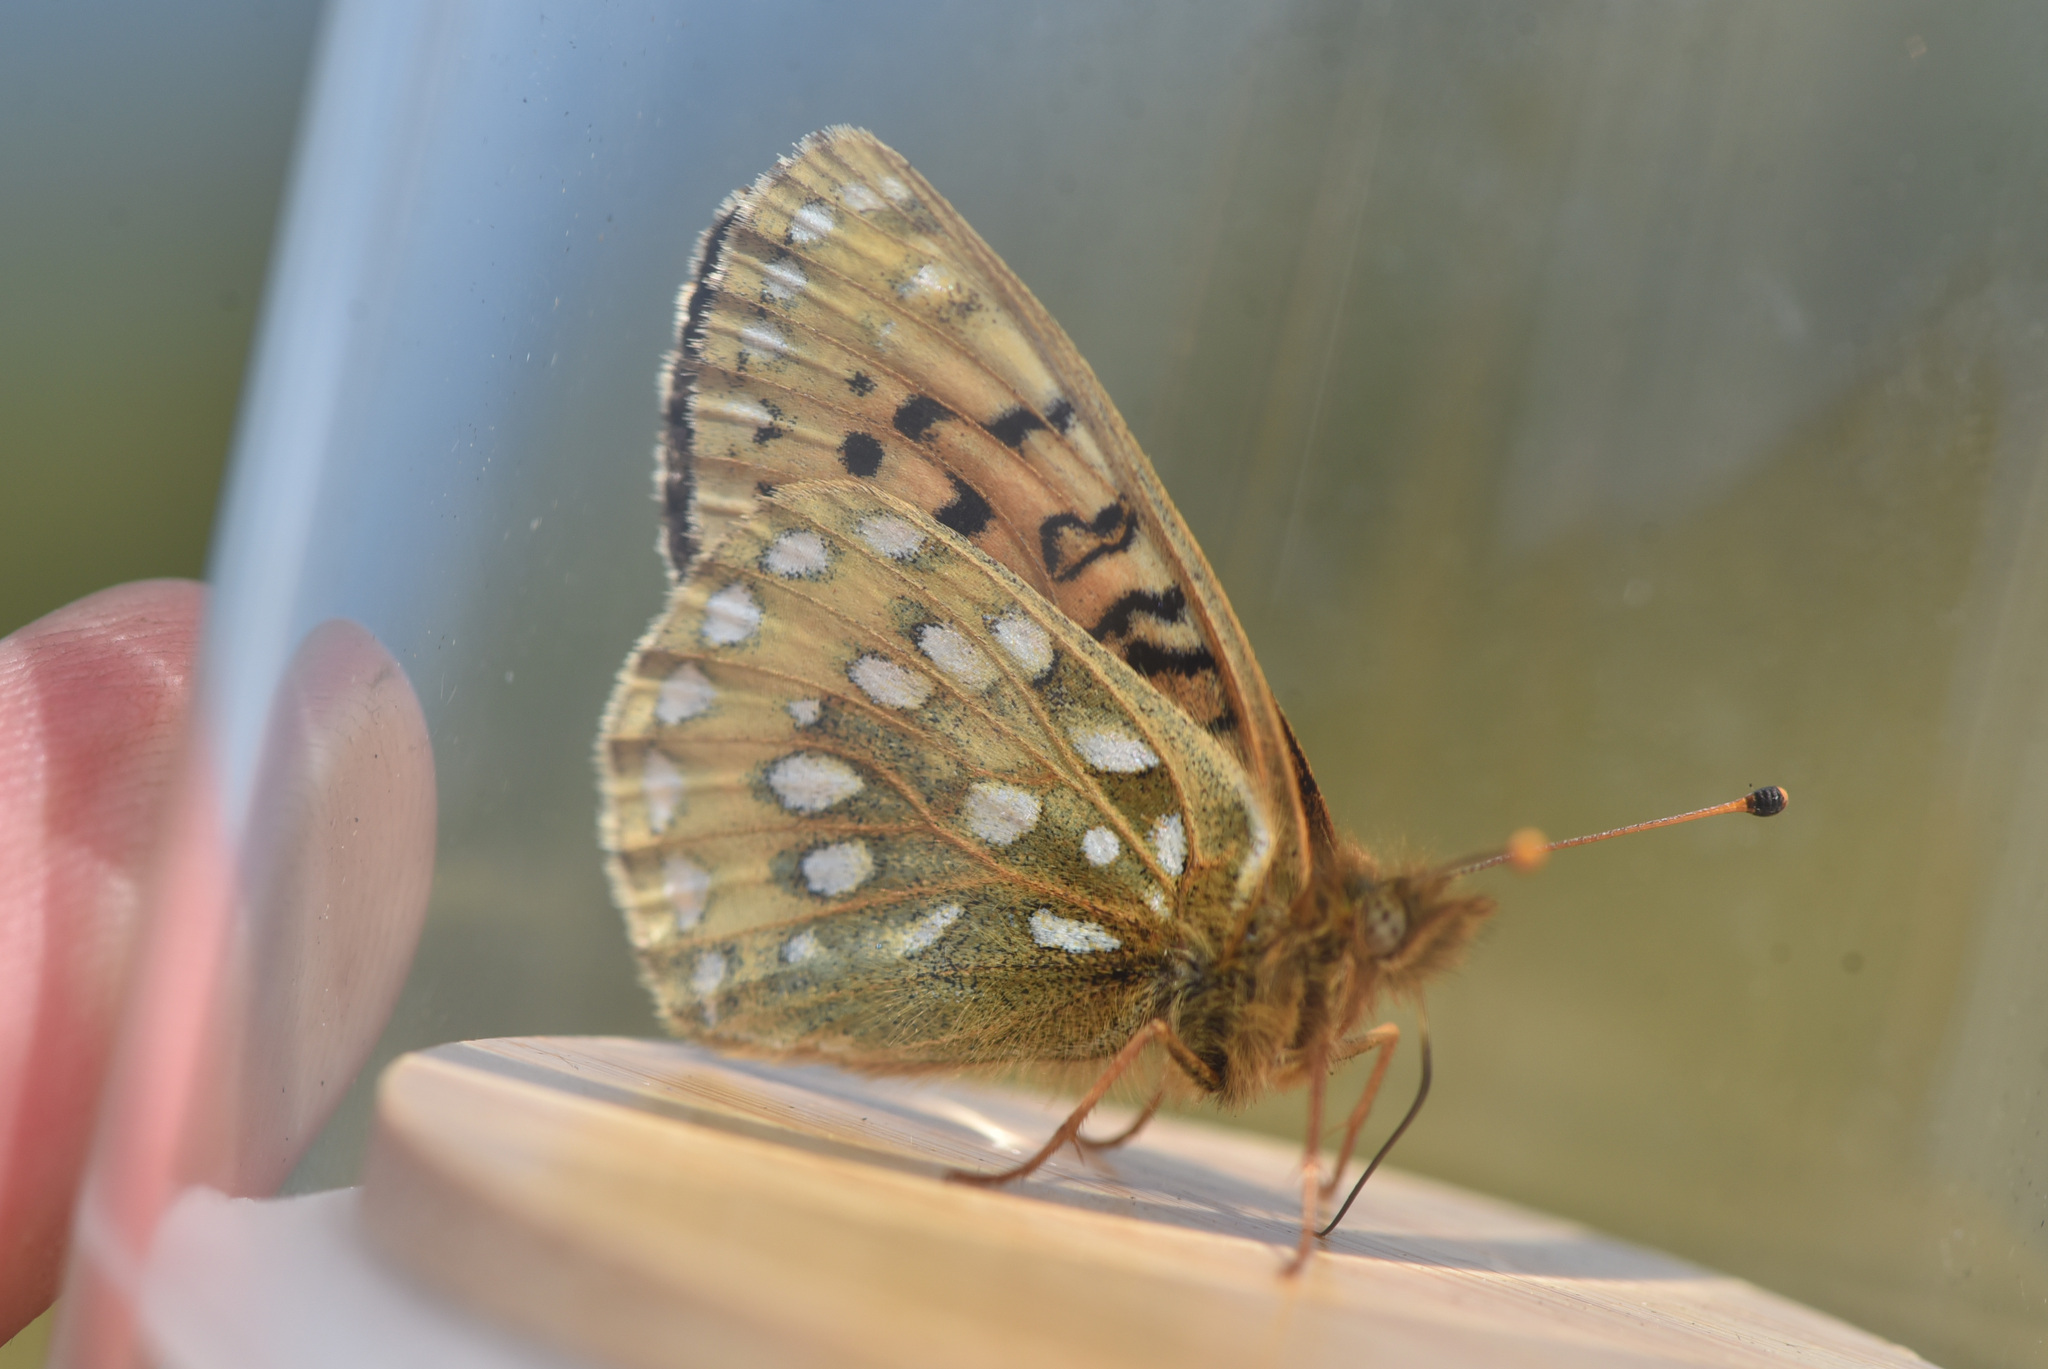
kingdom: Animalia
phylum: Arthropoda
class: Insecta
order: Lepidoptera
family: Nymphalidae
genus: Speyeria
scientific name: Speyeria mormonia
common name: Mormon fritillary
